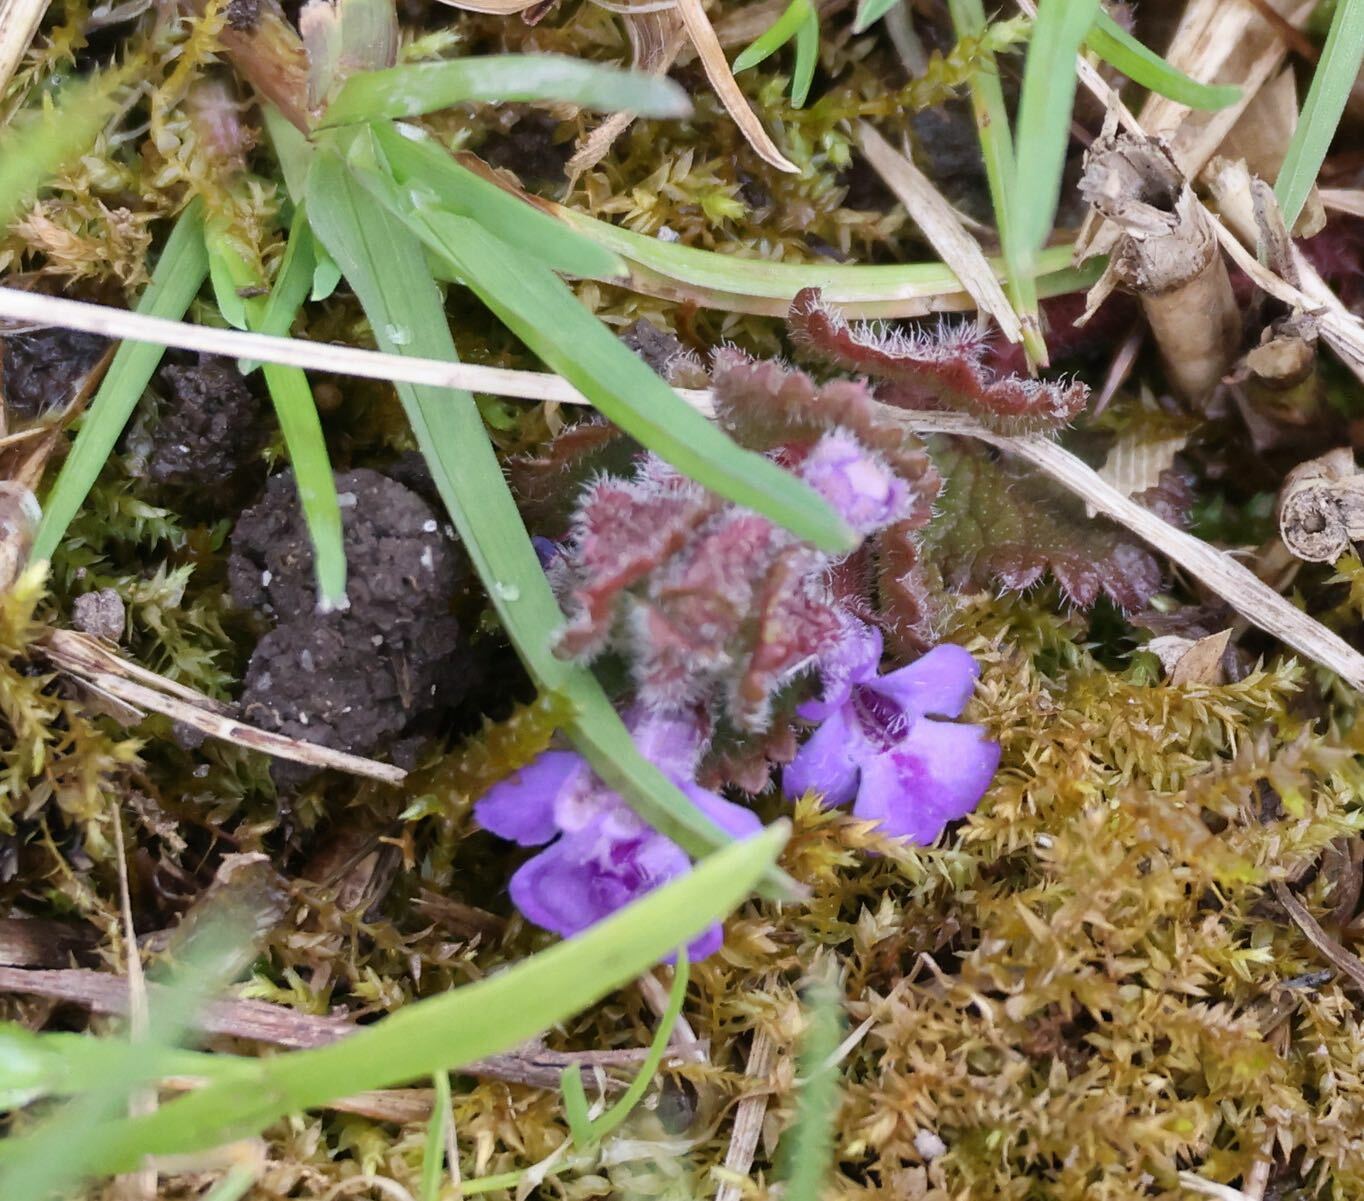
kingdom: Plantae
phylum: Tracheophyta
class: Magnoliopsida
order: Lamiales
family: Lamiaceae
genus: Glechoma
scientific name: Glechoma hederacea
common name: Ground ivy
